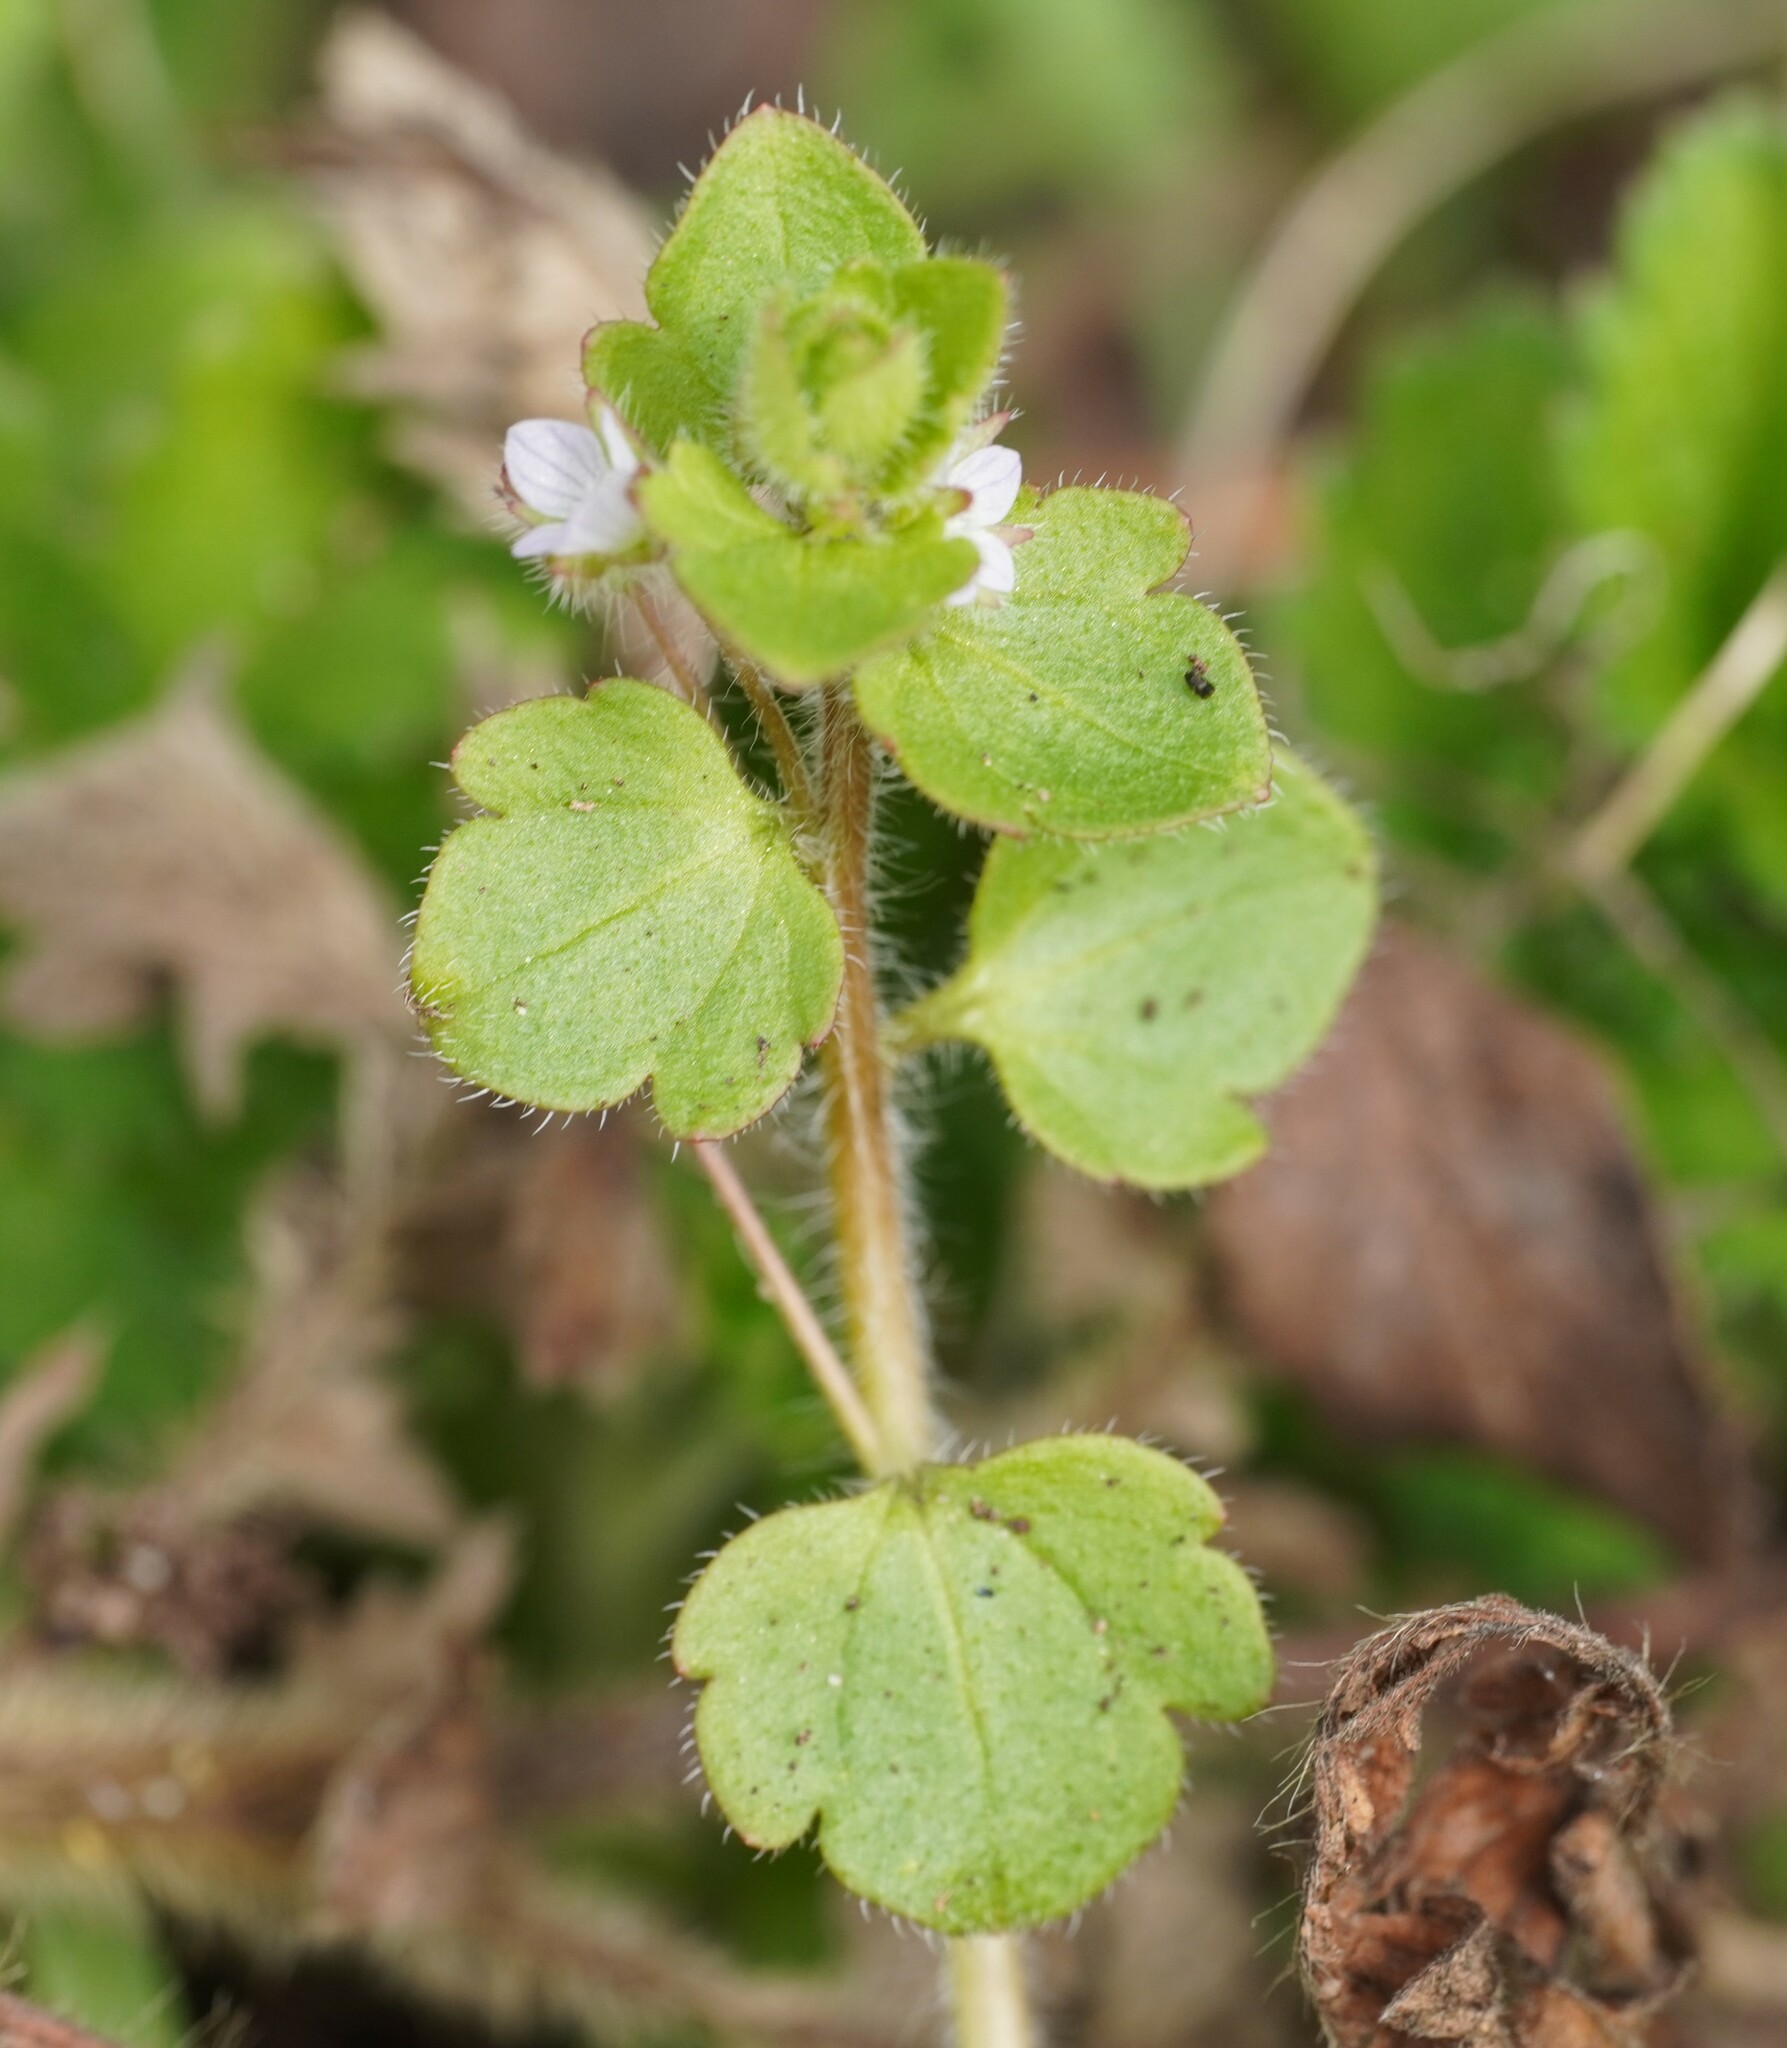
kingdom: Plantae
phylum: Tracheophyta
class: Magnoliopsida
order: Lamiales
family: Plantaginaceae
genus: Veronica
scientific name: Veronica sublobata
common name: False ivy-leaved speedwell
